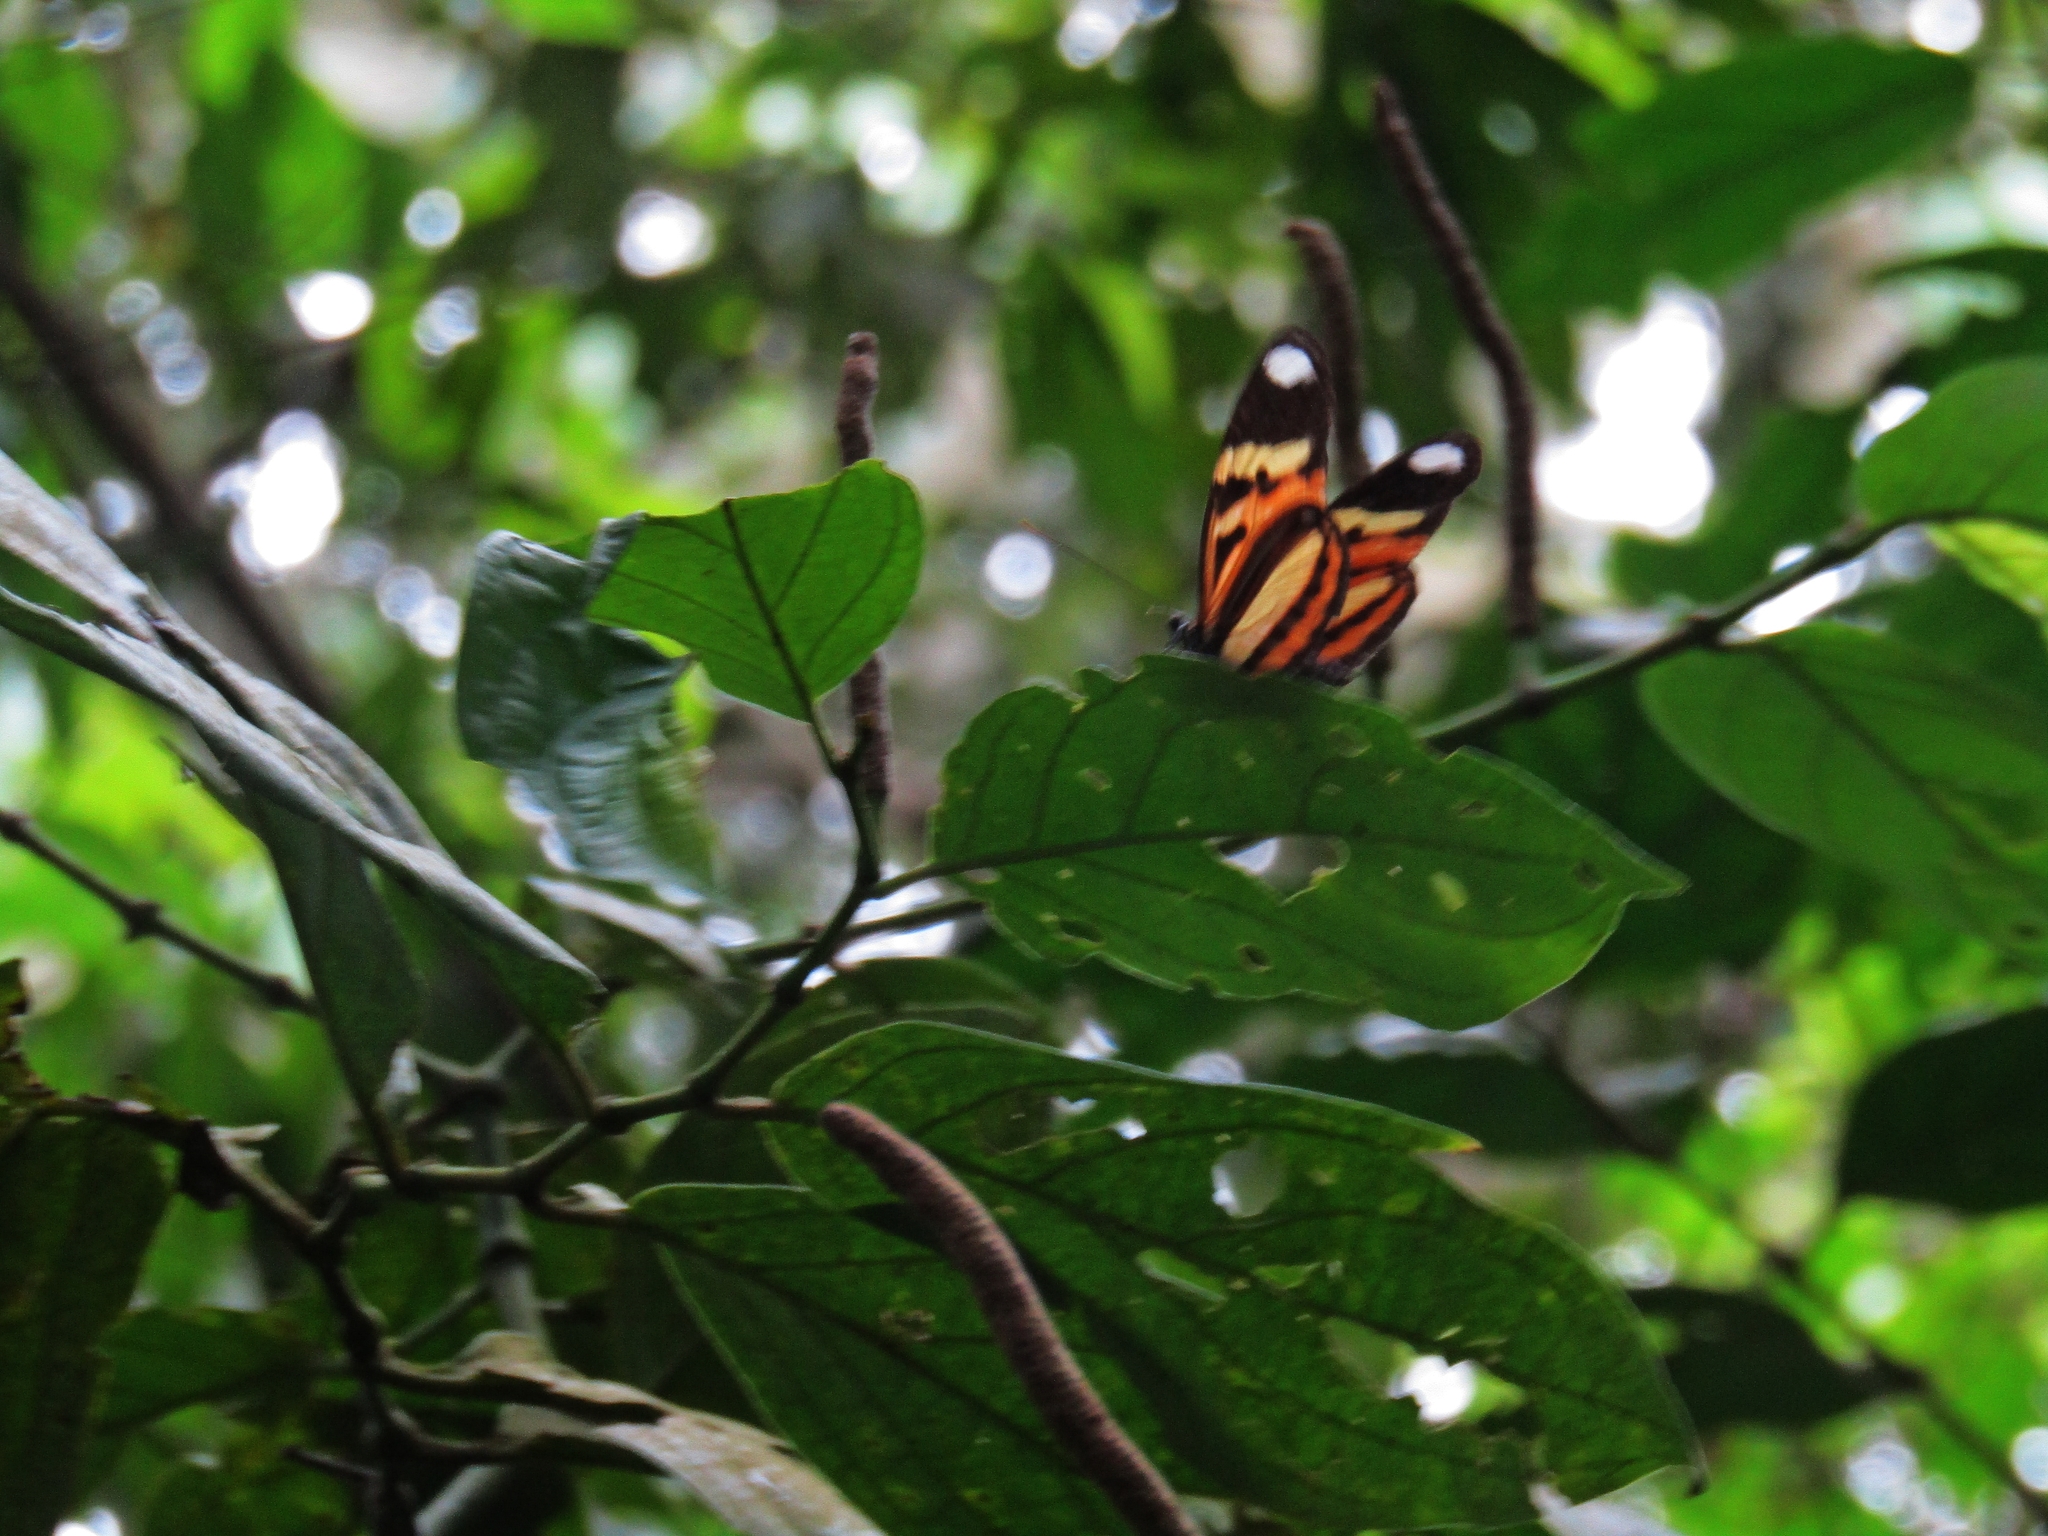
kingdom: Animalia
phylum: Arthropoda
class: Insecta
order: Lepidoptera
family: Nymphalidae
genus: Heliconius
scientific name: Heliconius ethilla
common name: Ethilia longwing
